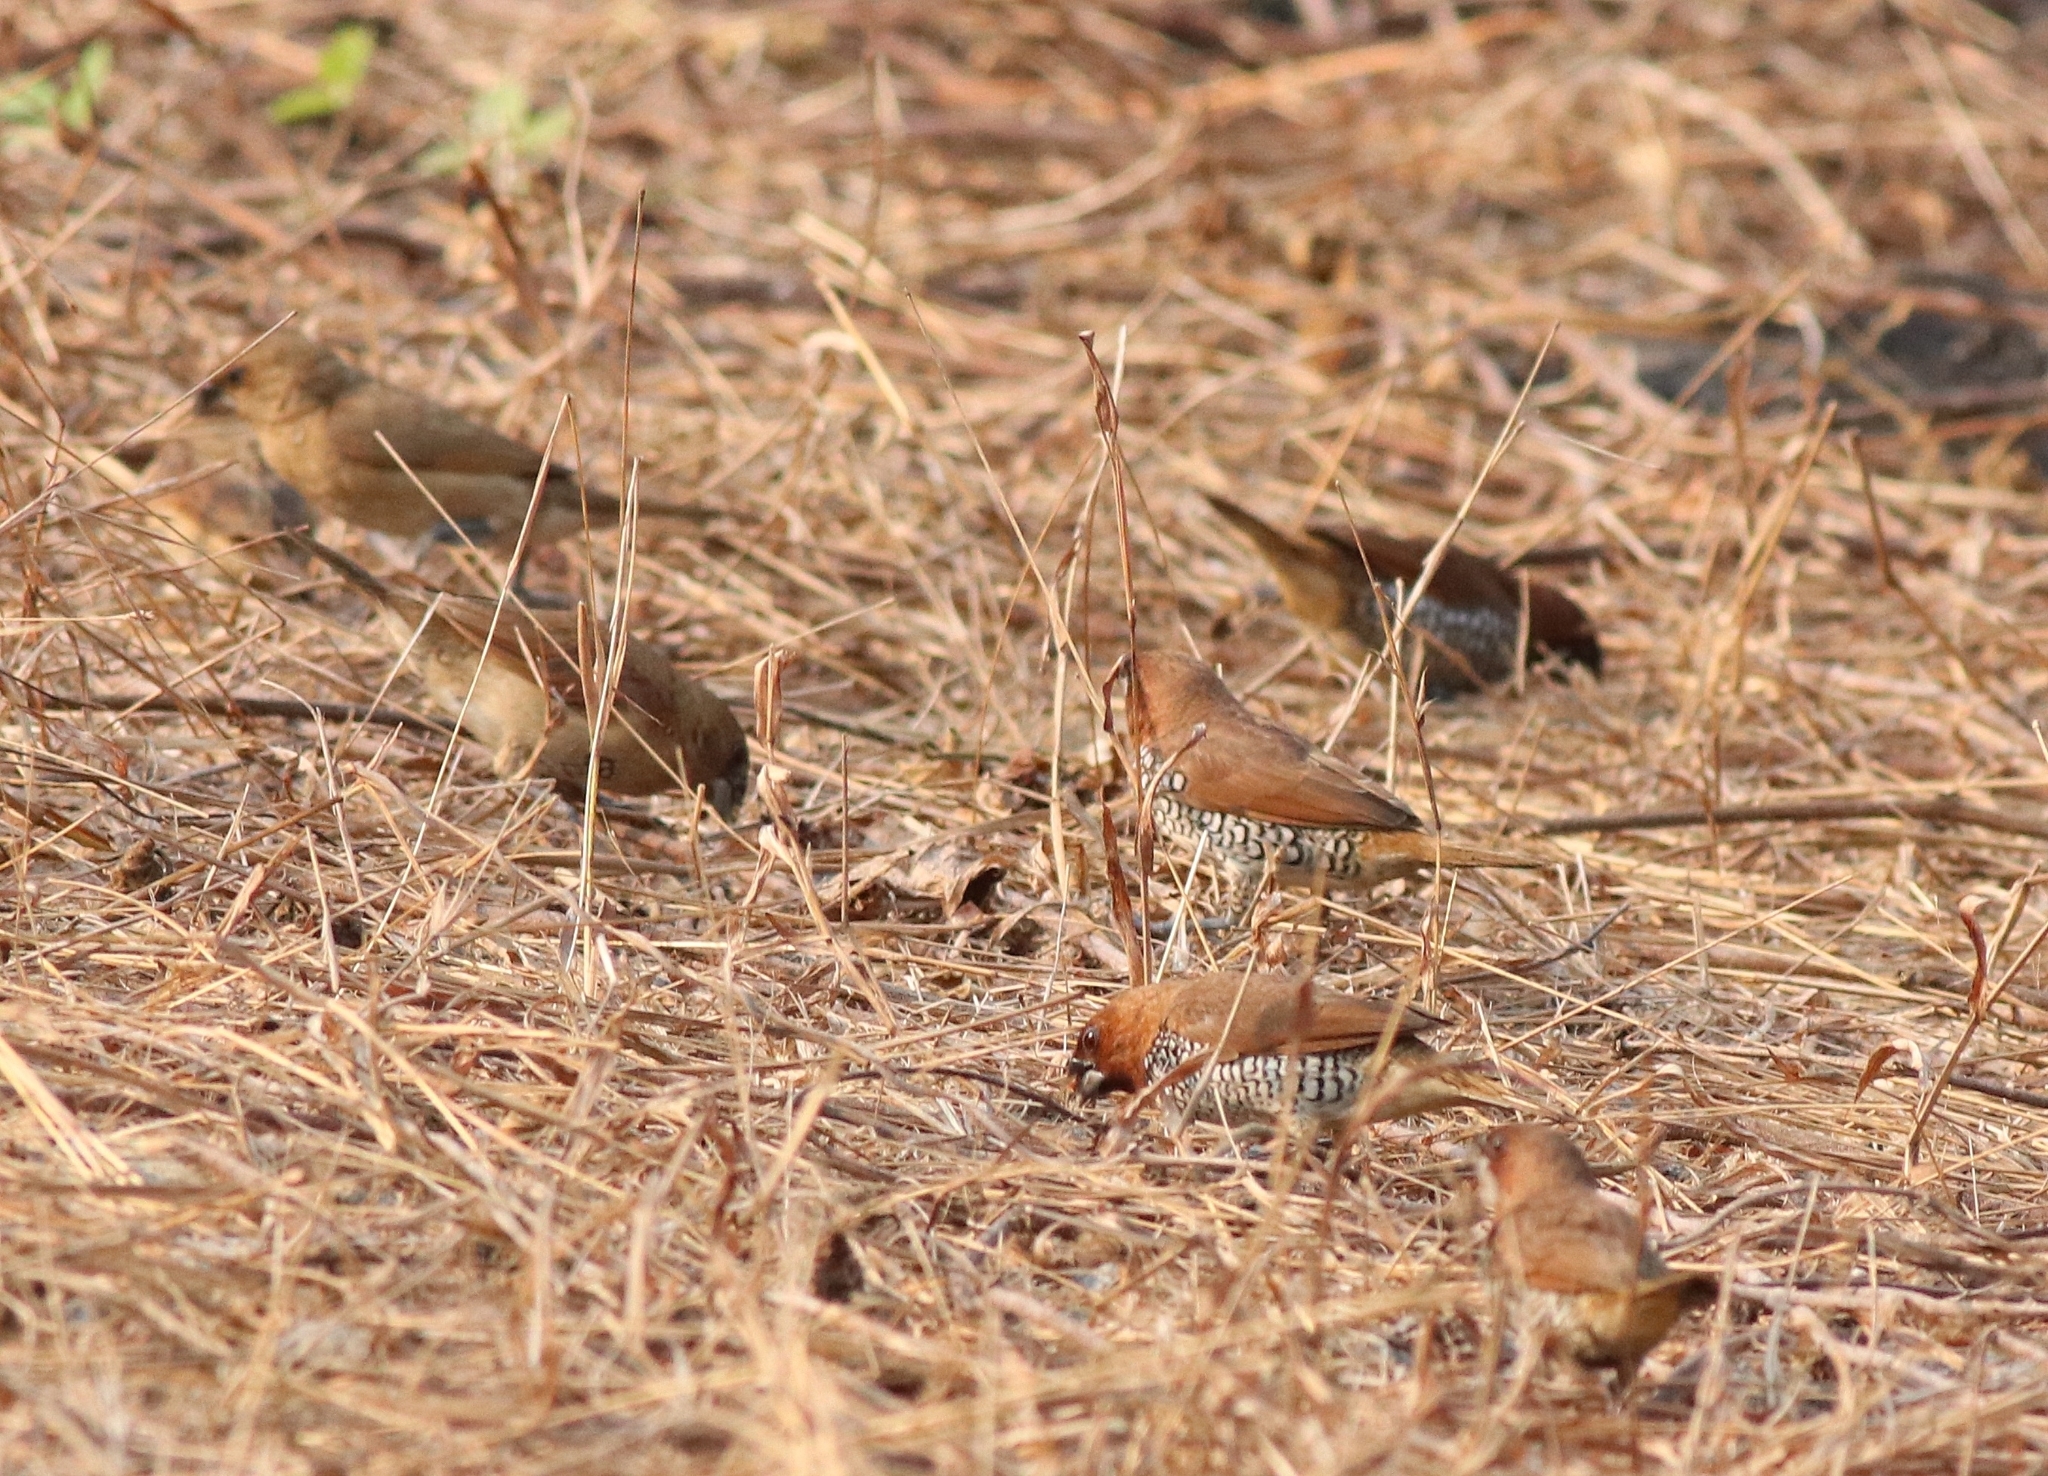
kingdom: Animalia
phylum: Chordata
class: Aves
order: Passeriformes
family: Estrildidae
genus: Lonchura
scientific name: Lonchura punctulata
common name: Scaly-breasted munia
